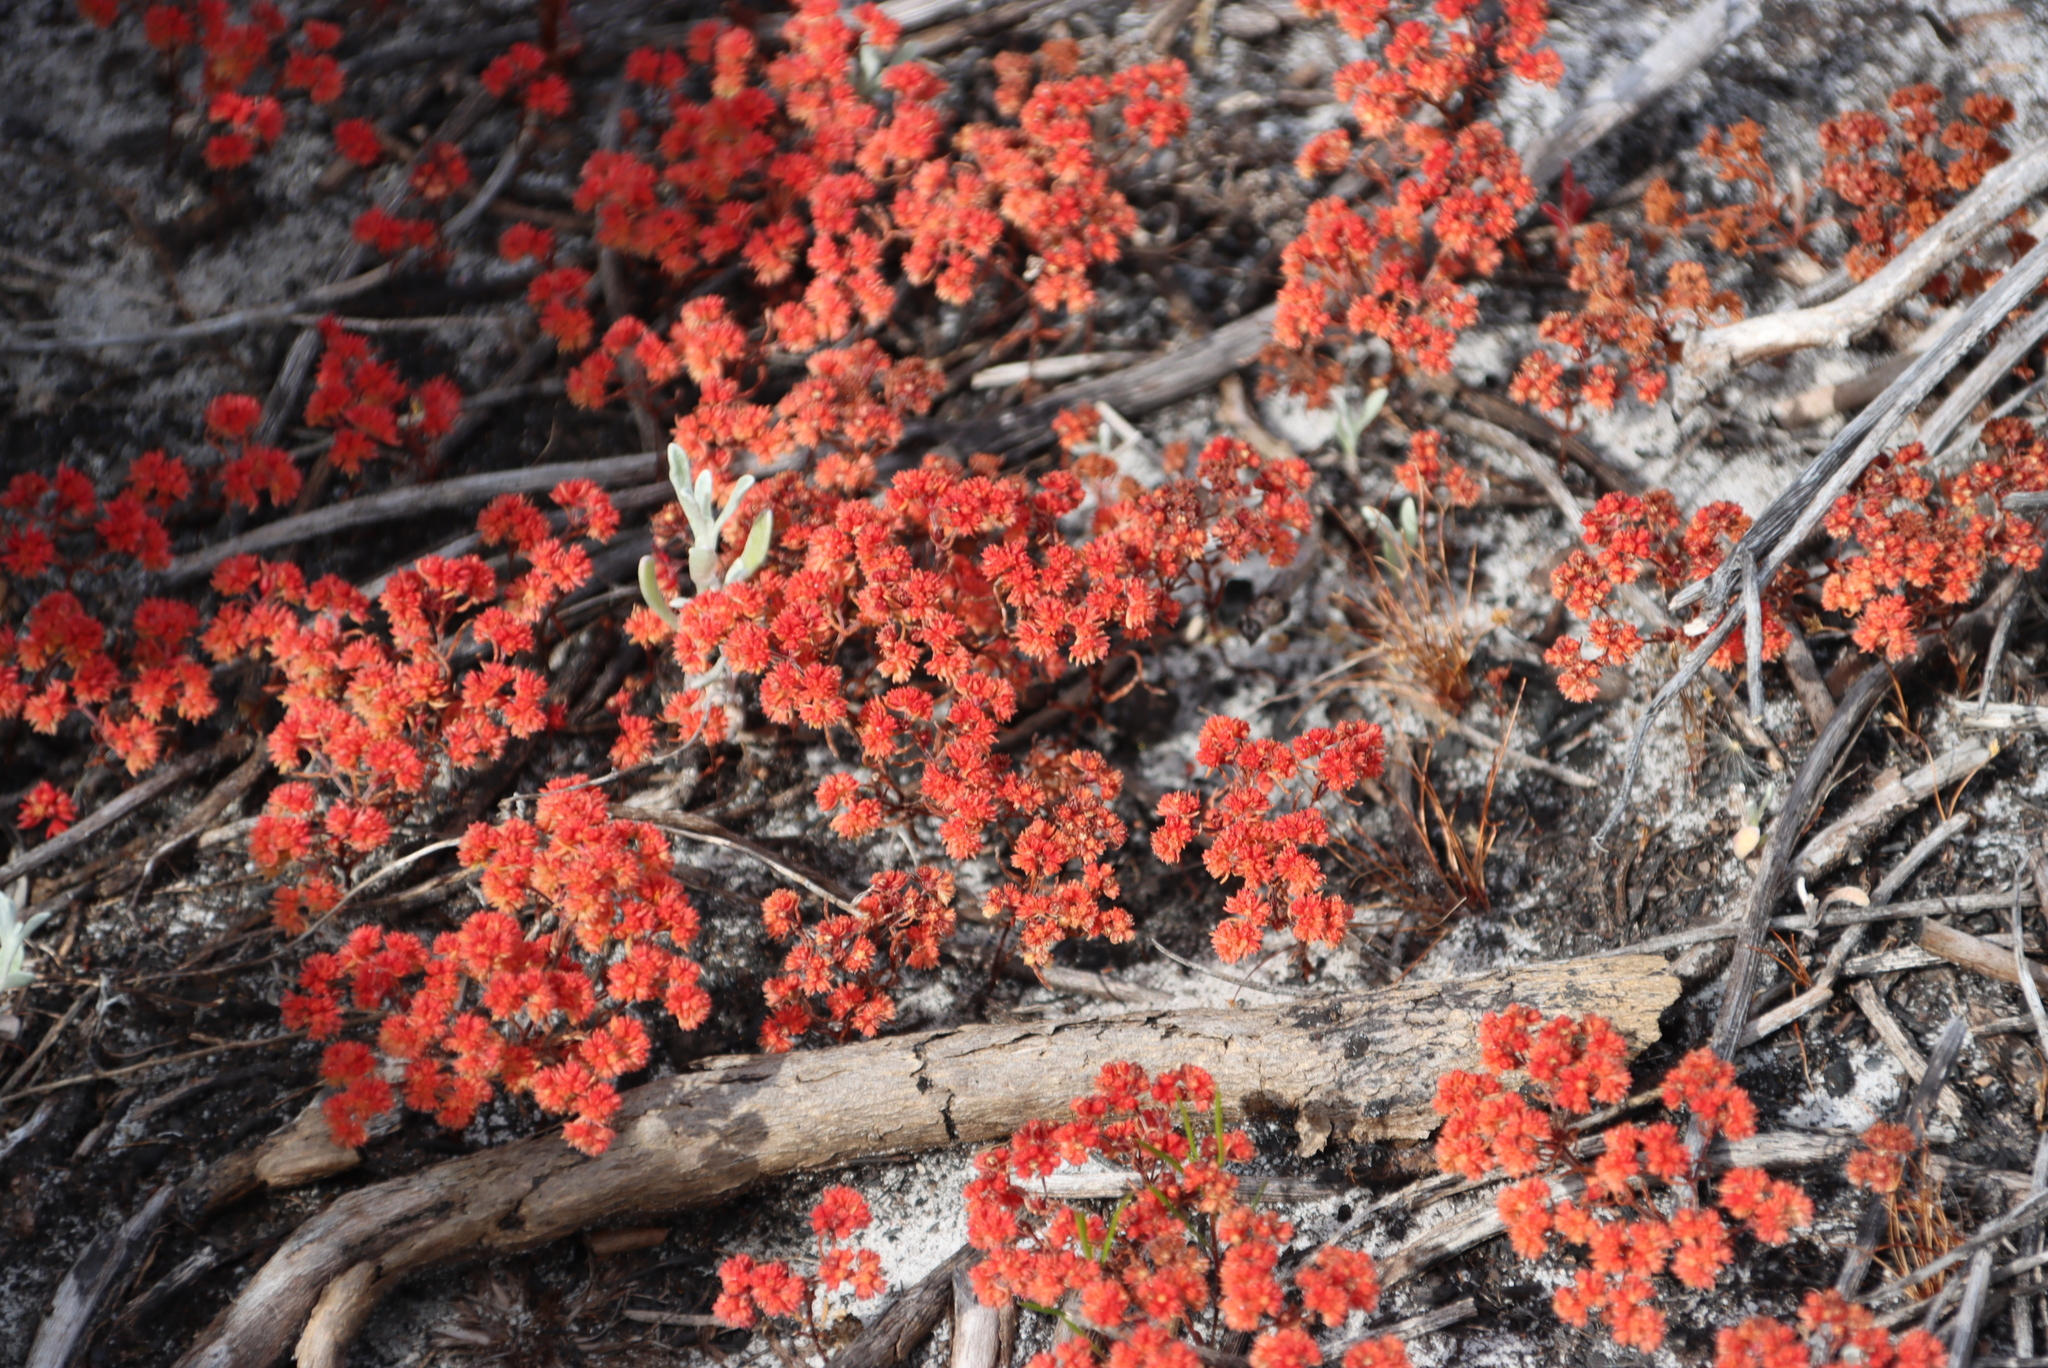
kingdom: Plantae
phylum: Tracheophyta
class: Magnoliopsida
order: Saxifragales
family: Crassulaceae
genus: Crassula
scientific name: Crassula glomerata
